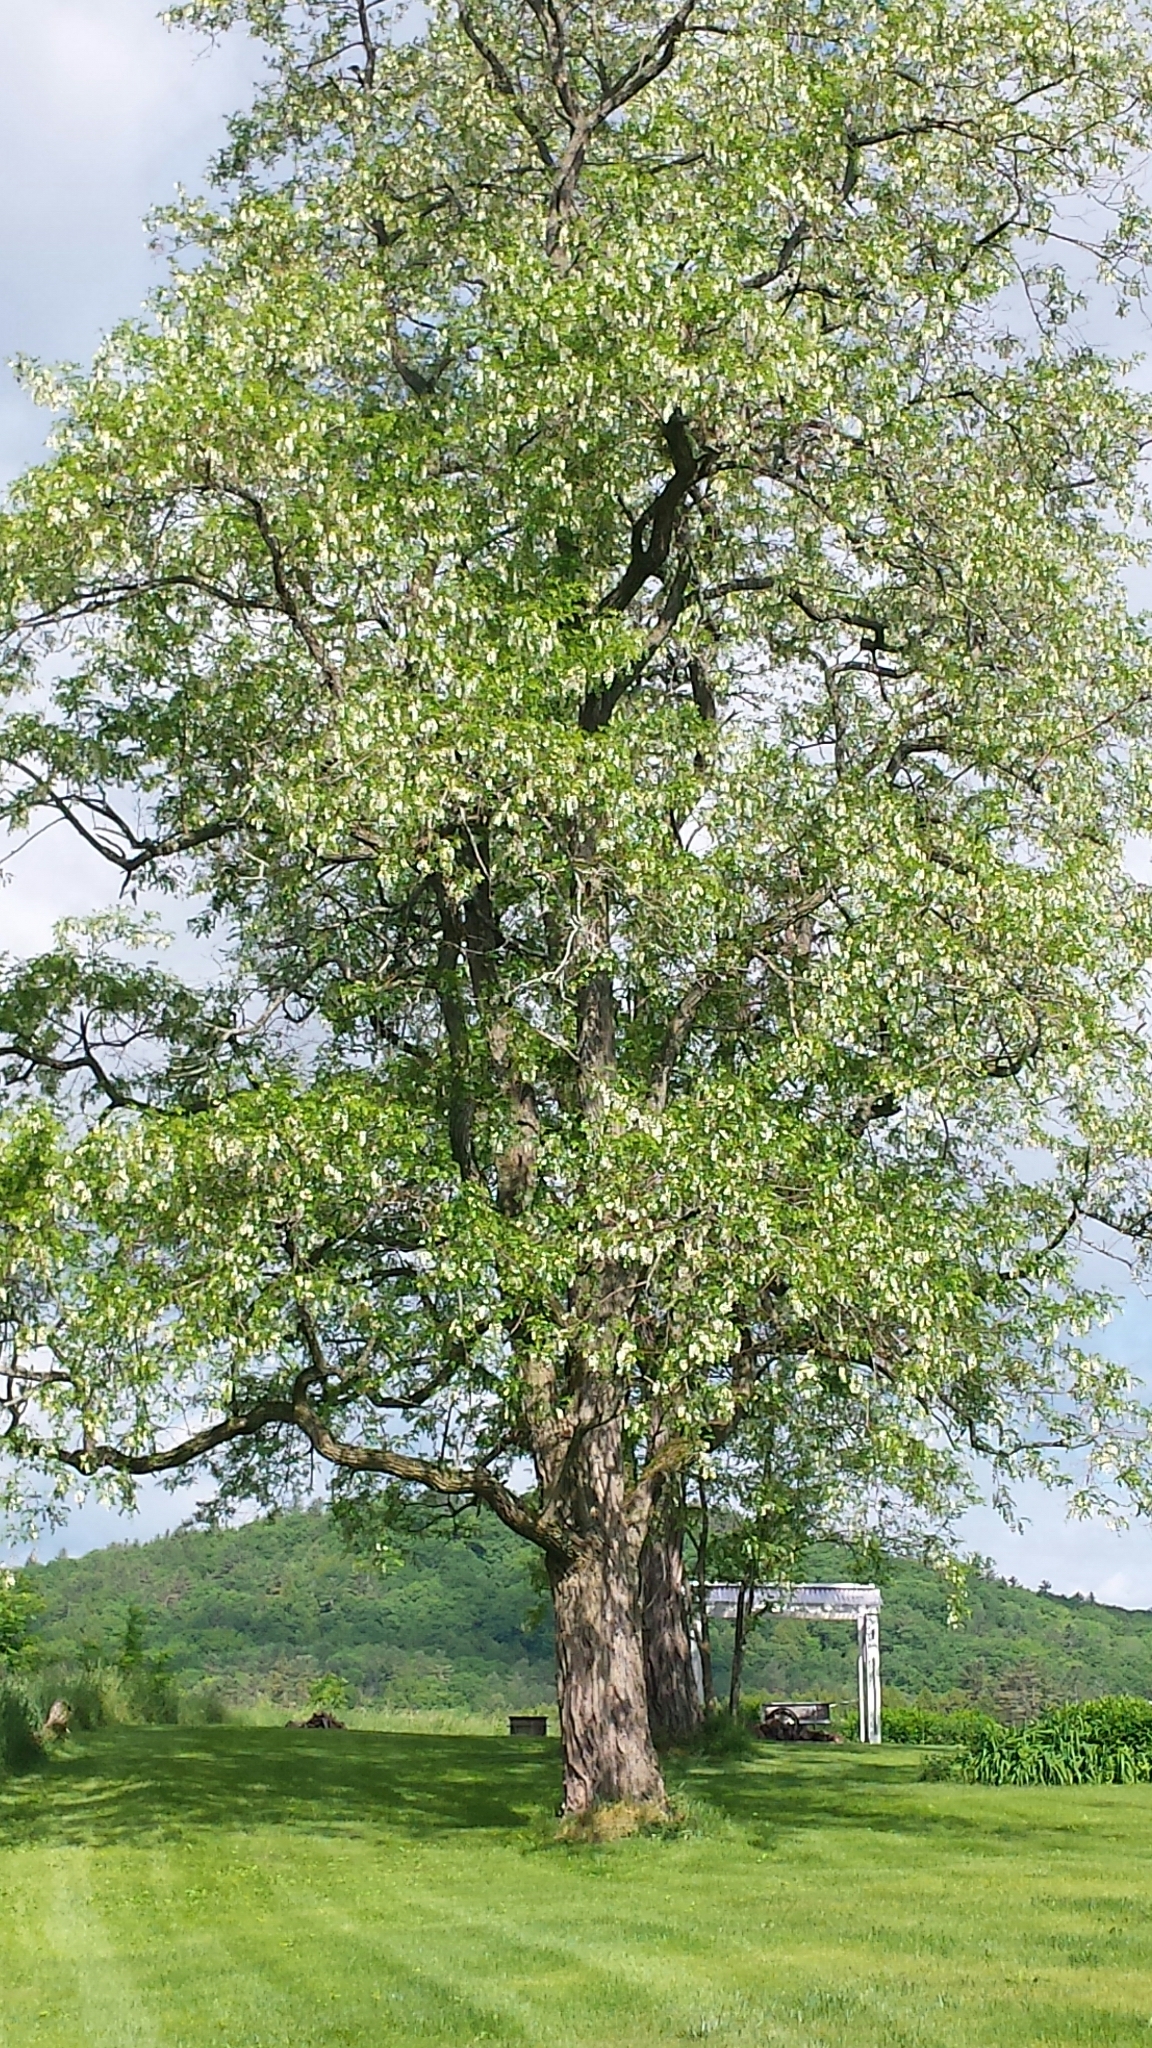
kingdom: Plantae
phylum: Tracheophyta
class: Magnoliopsida
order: Fabales
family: Fabaceae
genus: Robinia
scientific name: Robinia pseudoacacia
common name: Black locust
